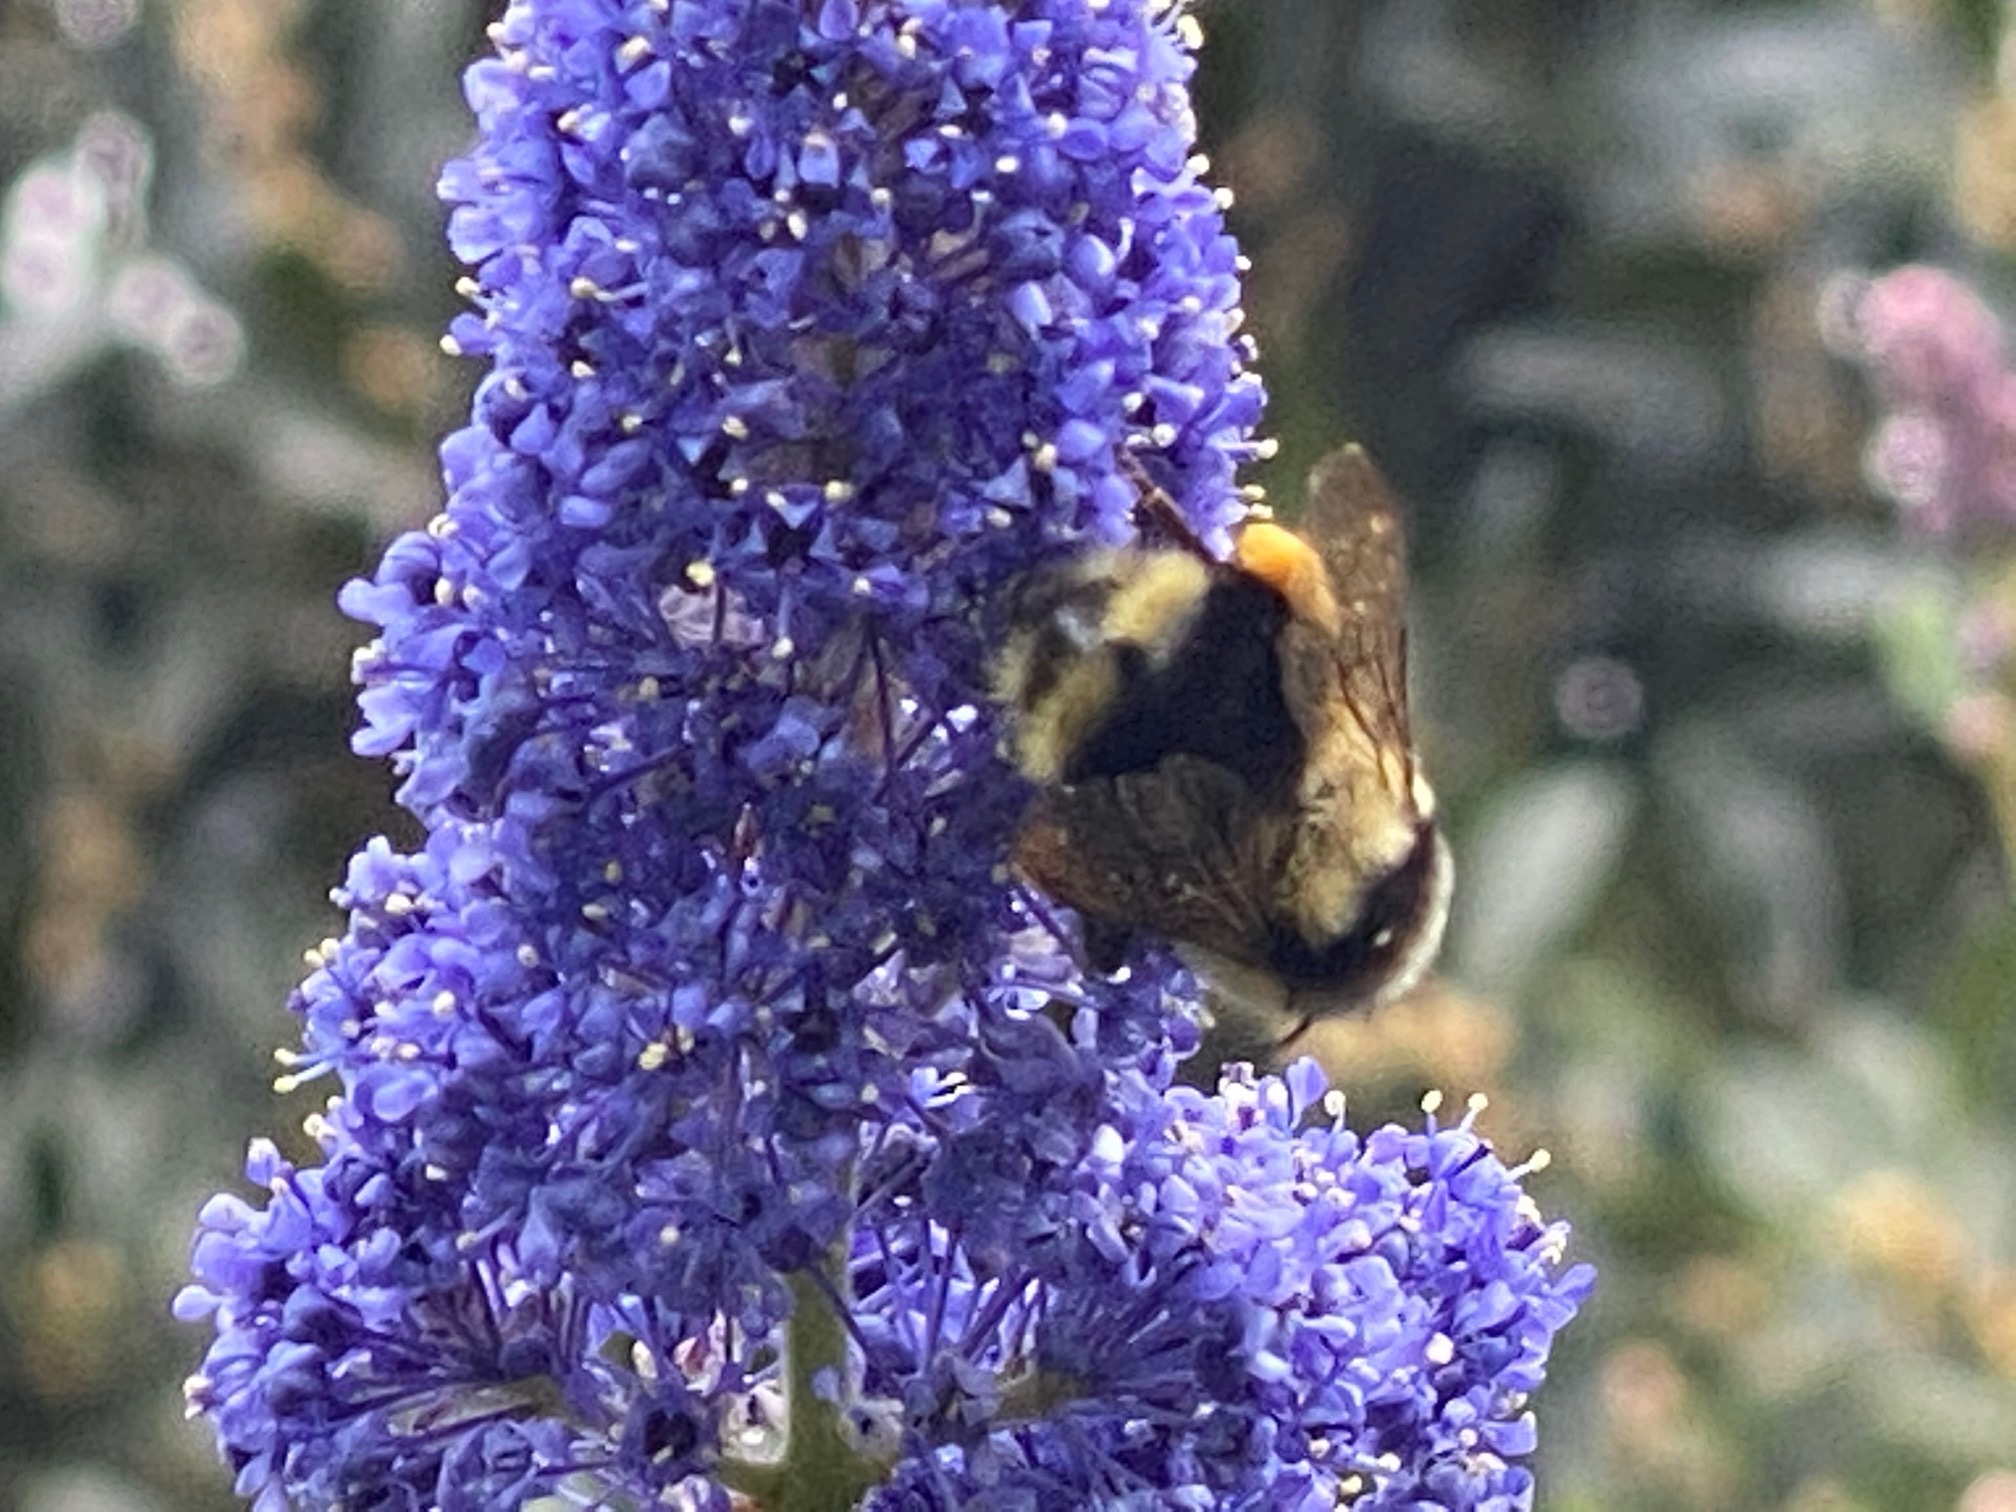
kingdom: Animalia
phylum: Arthropoda
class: Insecta
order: Hymenoptera
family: Apidae
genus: Bombus
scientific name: Bombus melanopygus
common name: Black tail bumble bee
